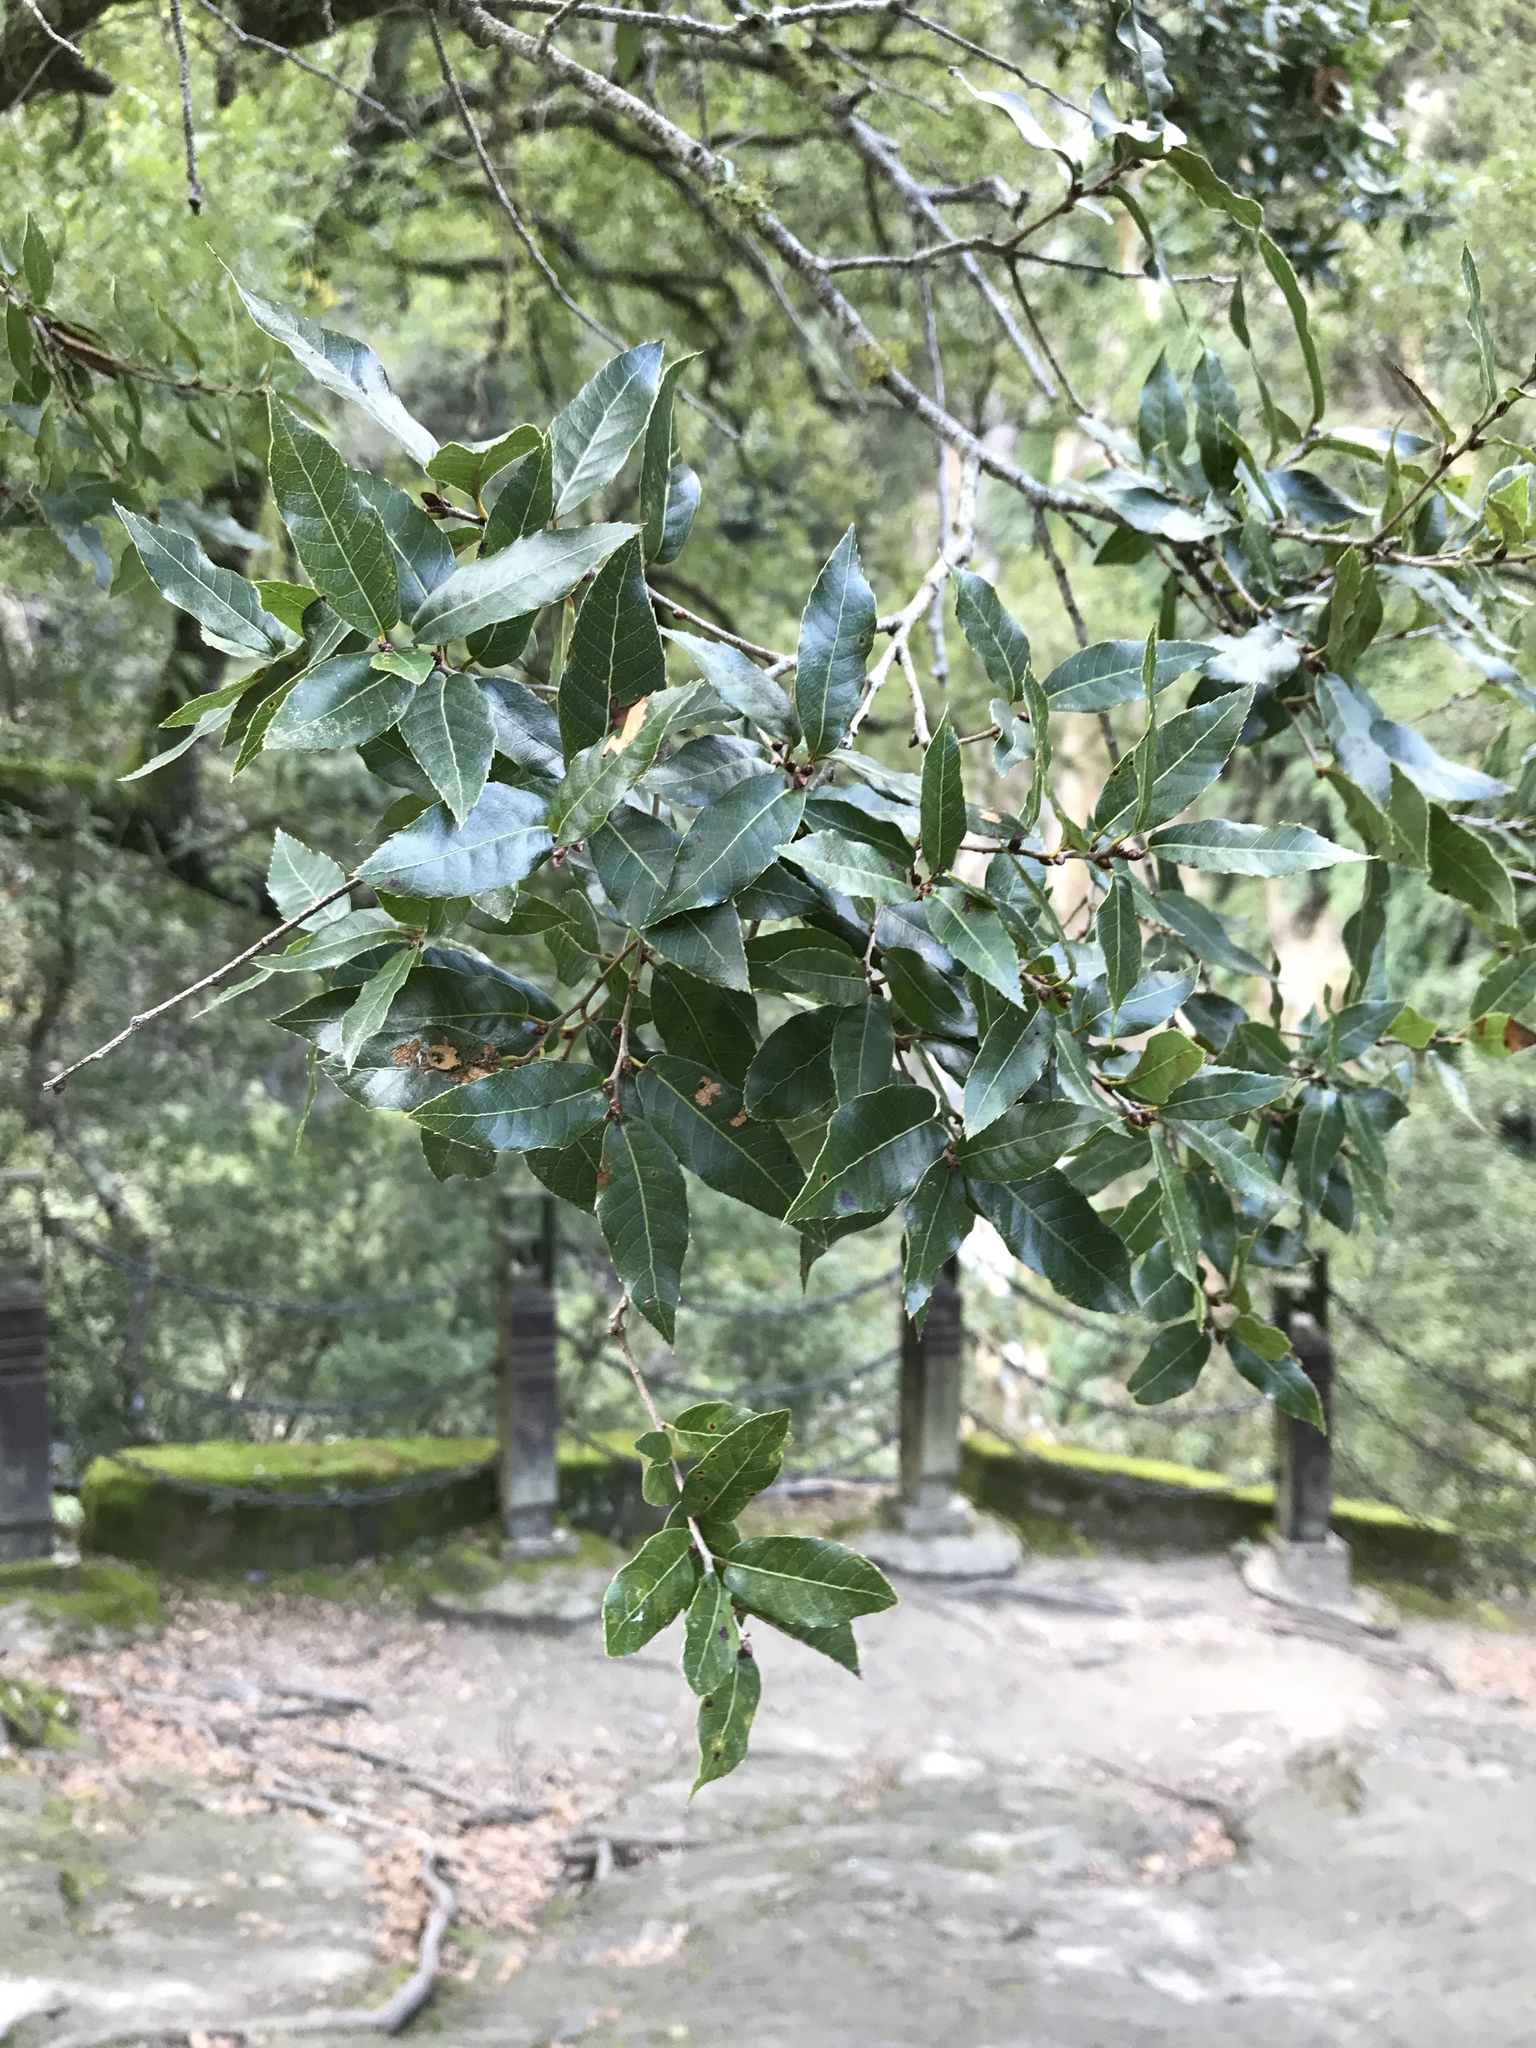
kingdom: Plantae
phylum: Tracheophyta
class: Magnoliopsida
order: Fagales
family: Fagaceae
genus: Quercus
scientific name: Quercus tarokoensis
